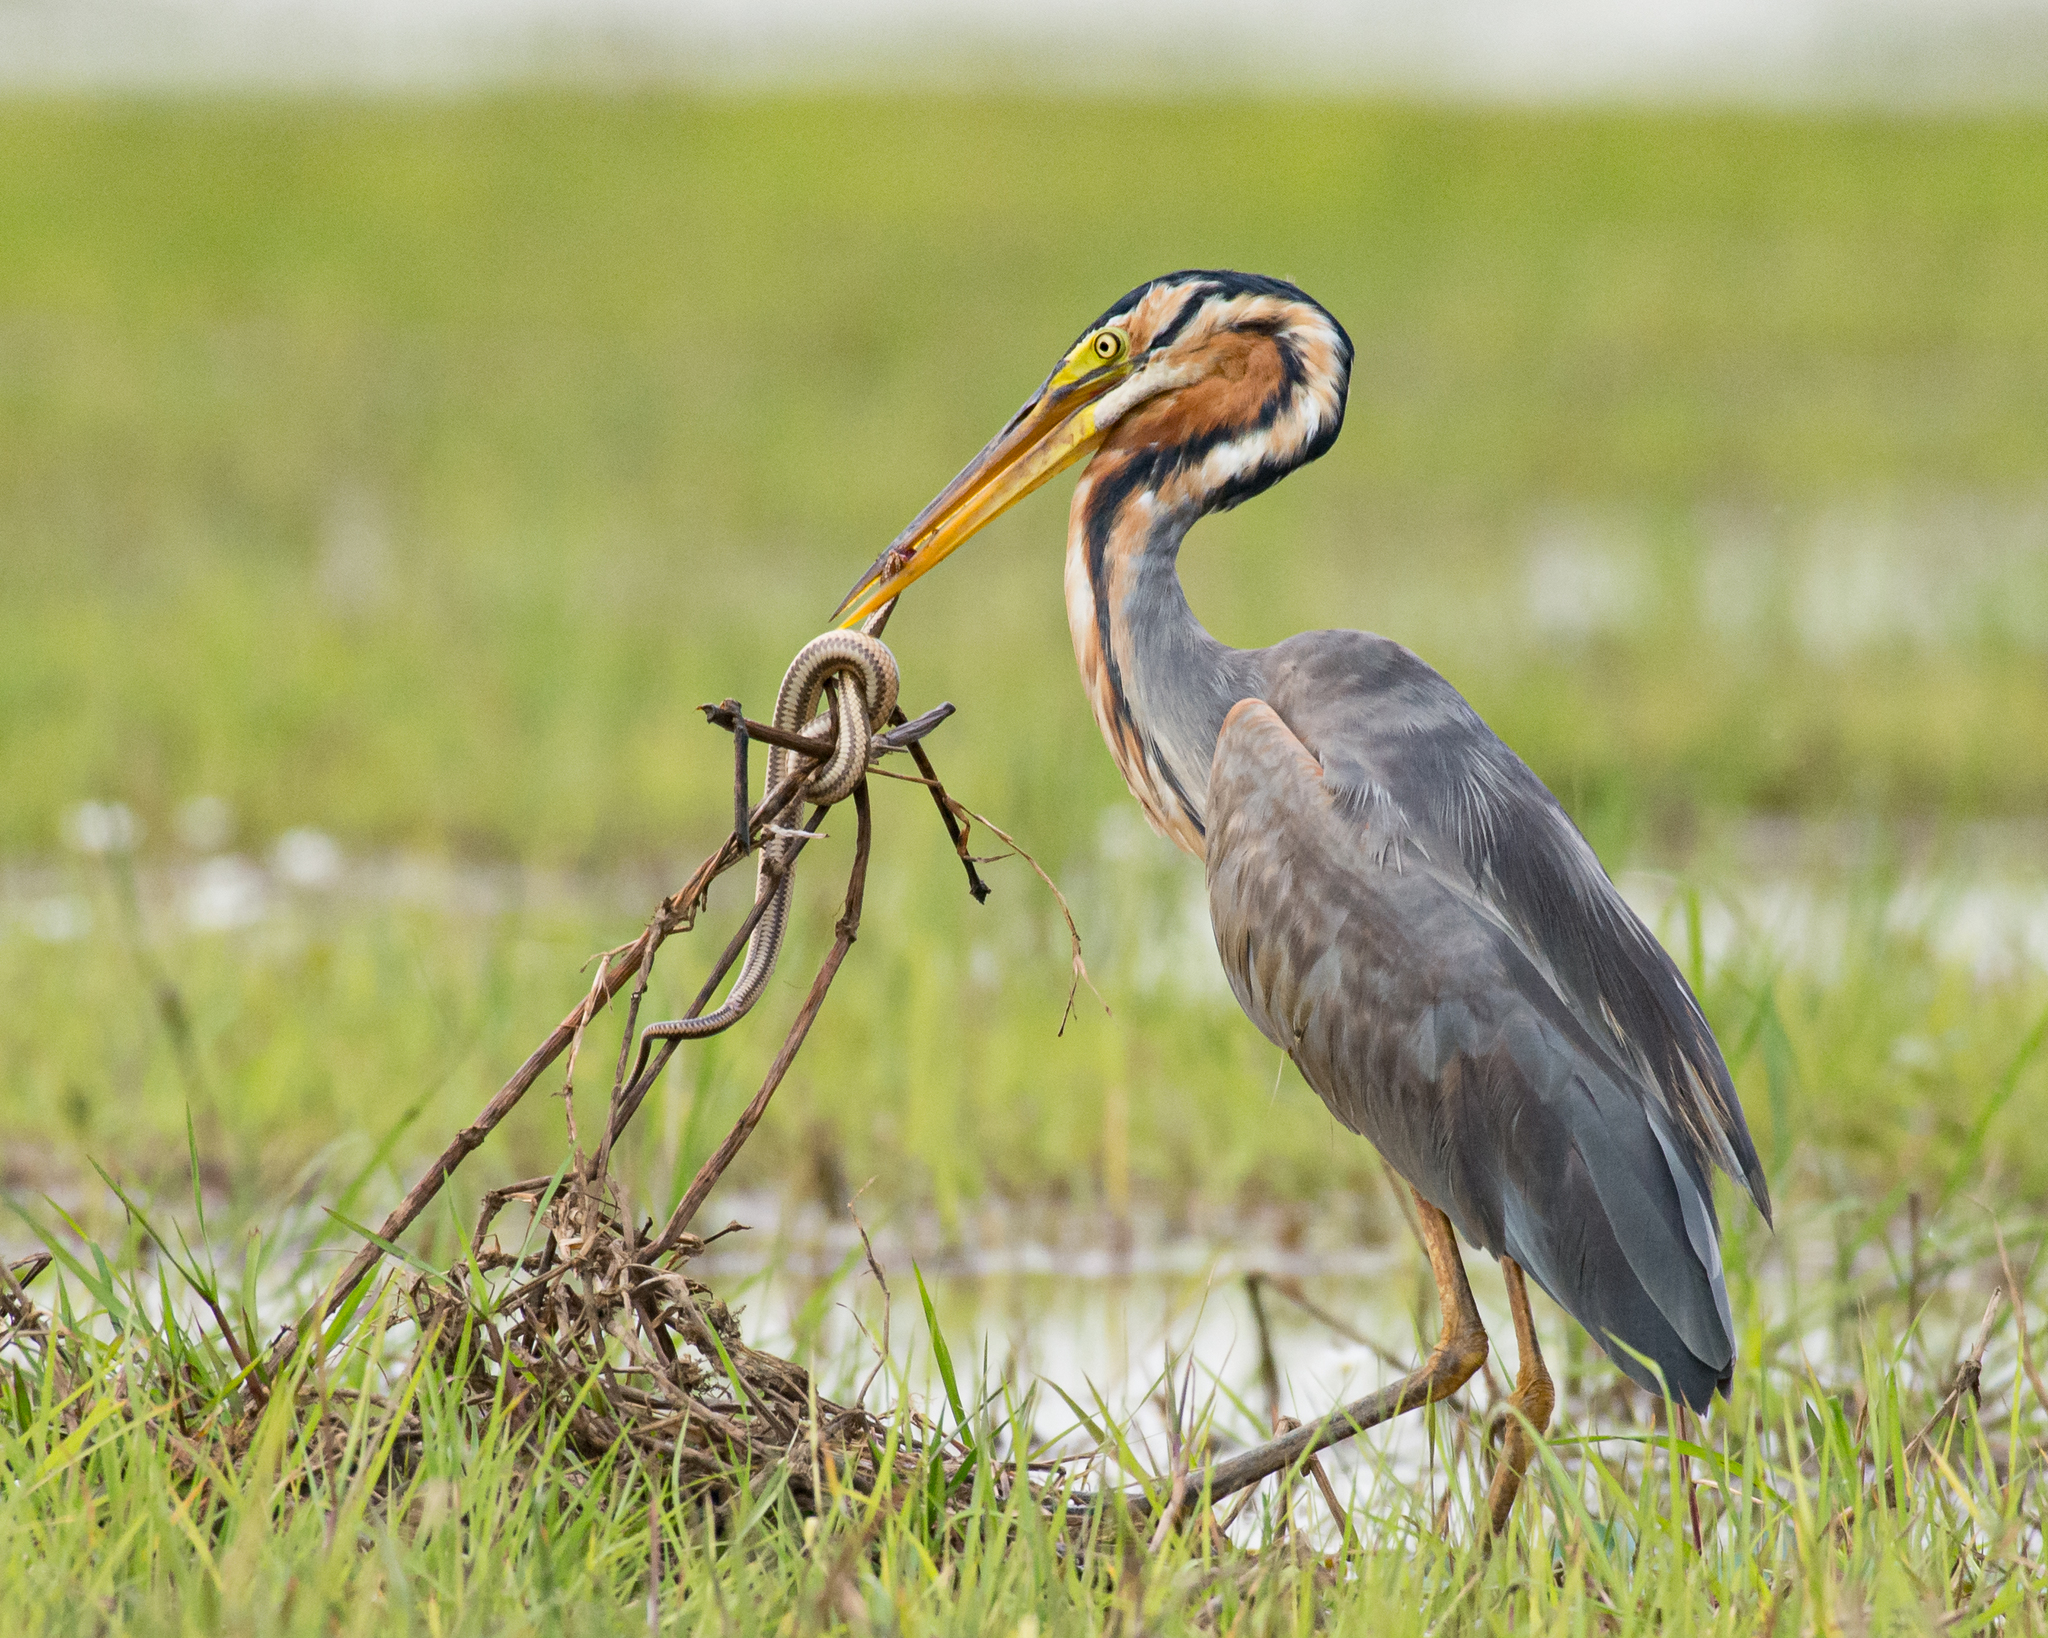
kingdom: Animalia
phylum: Chordata
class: Aves
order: Pelecaniformes
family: Ardeidae
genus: Ardea
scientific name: Ardea purpurea
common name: Purple heron
